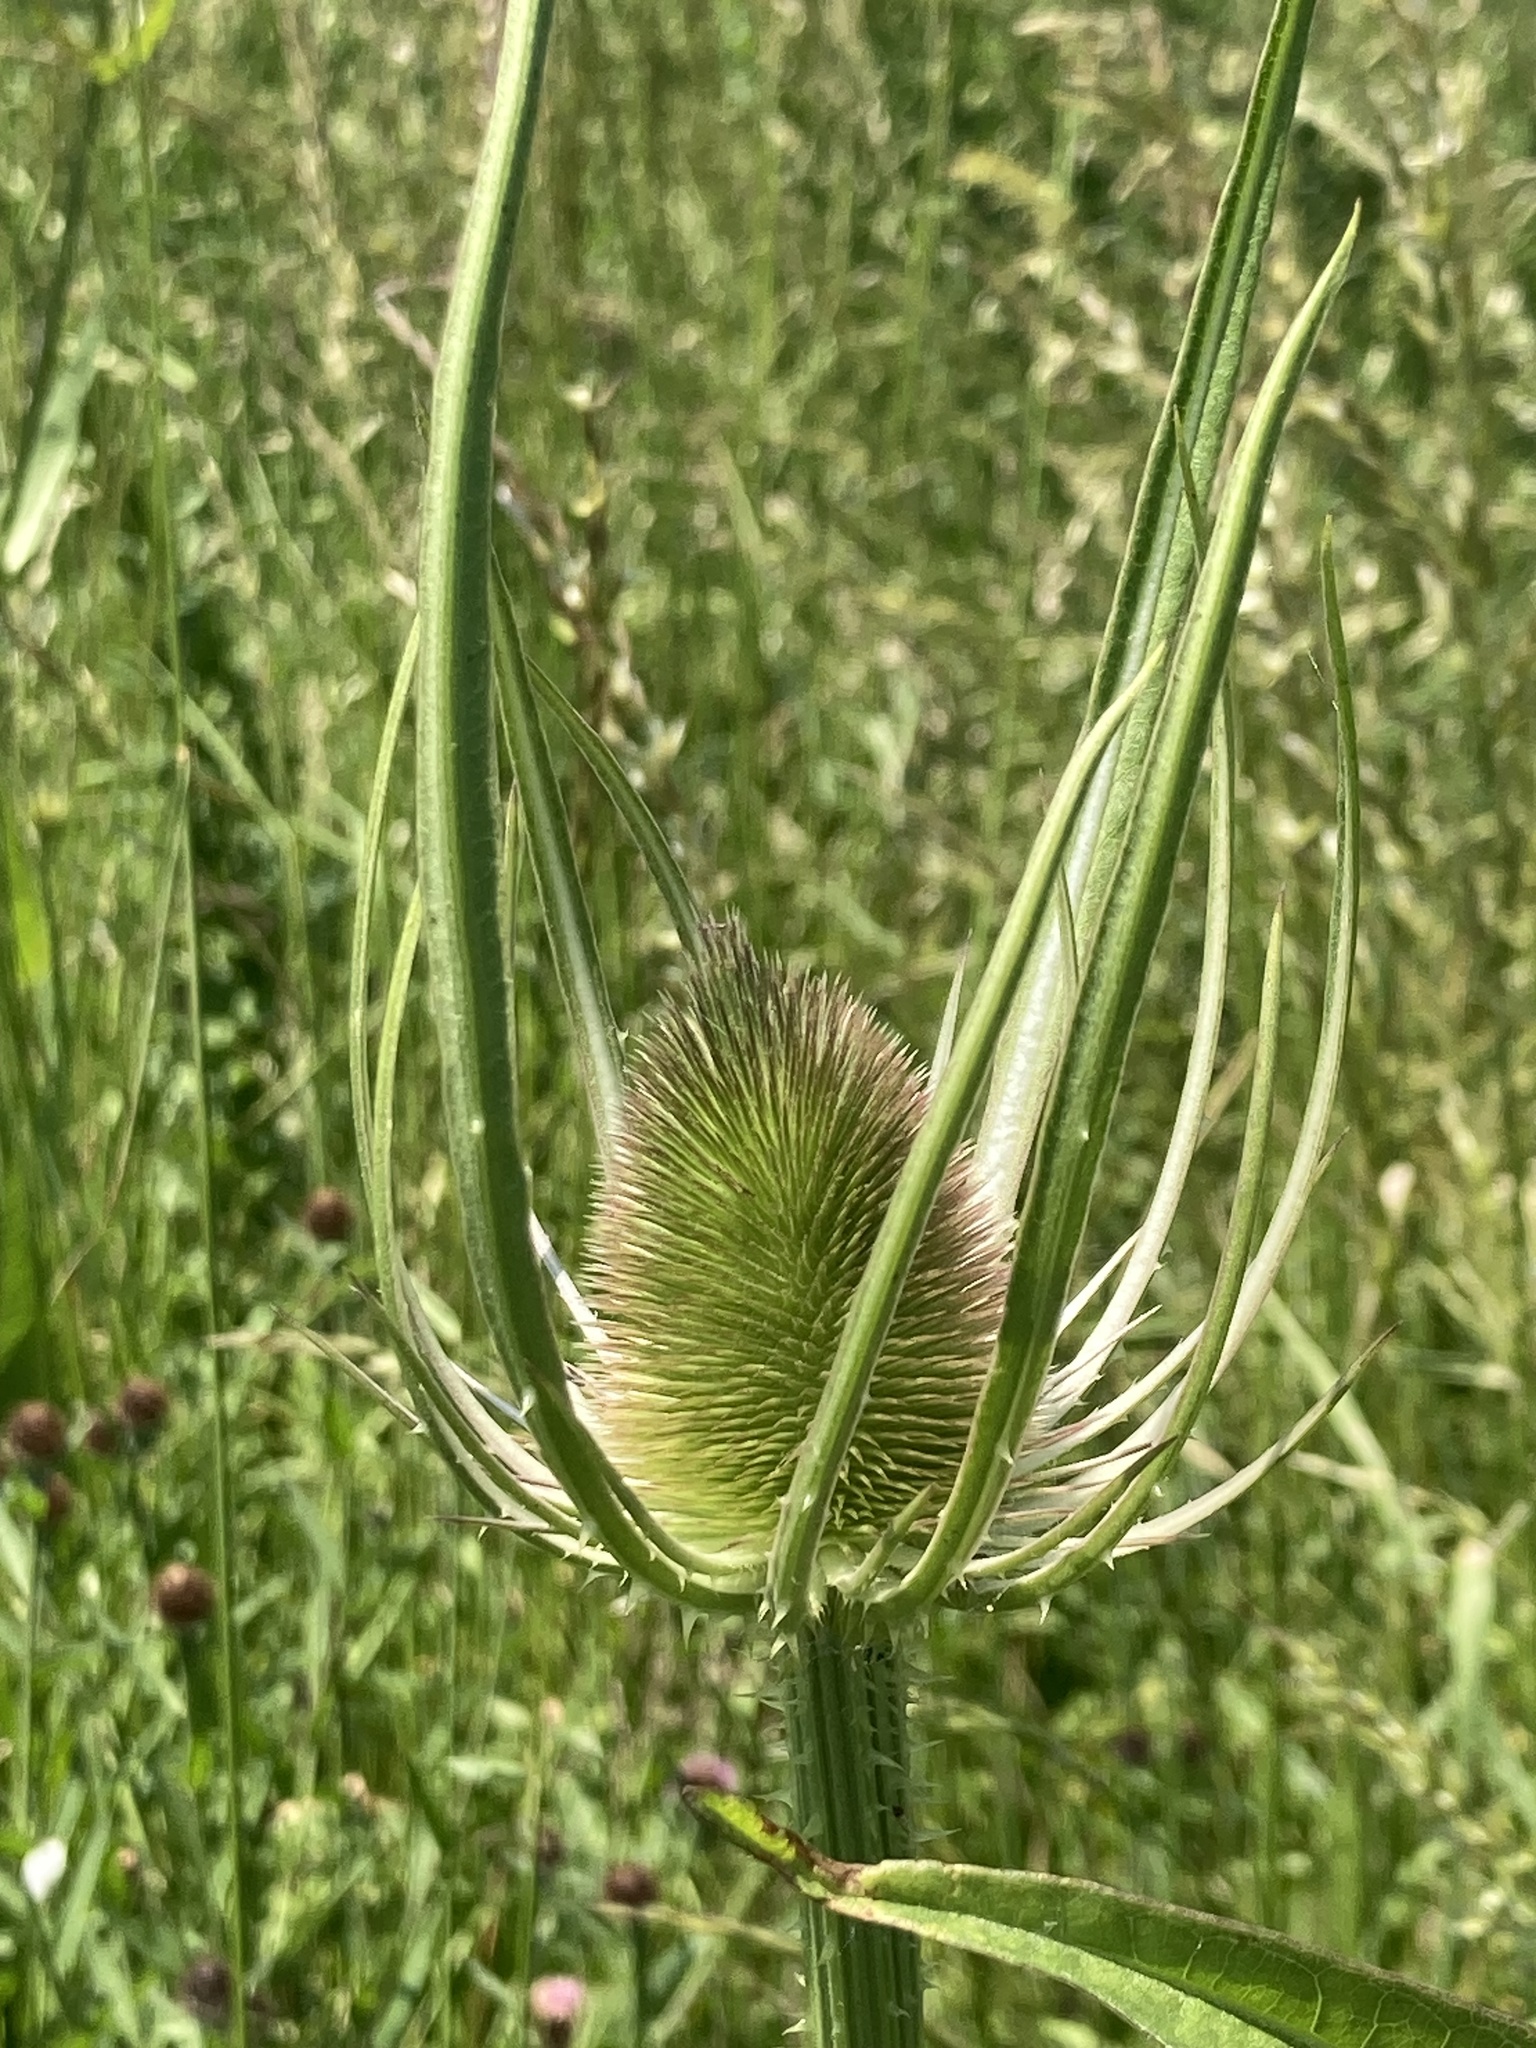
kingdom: Plantae
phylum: Tracheophyta
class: Magnoliopsida
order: Dipsacales
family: Caprifoliaceae
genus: Dipsacus
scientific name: Dipsacus fullonum
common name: Teasel
